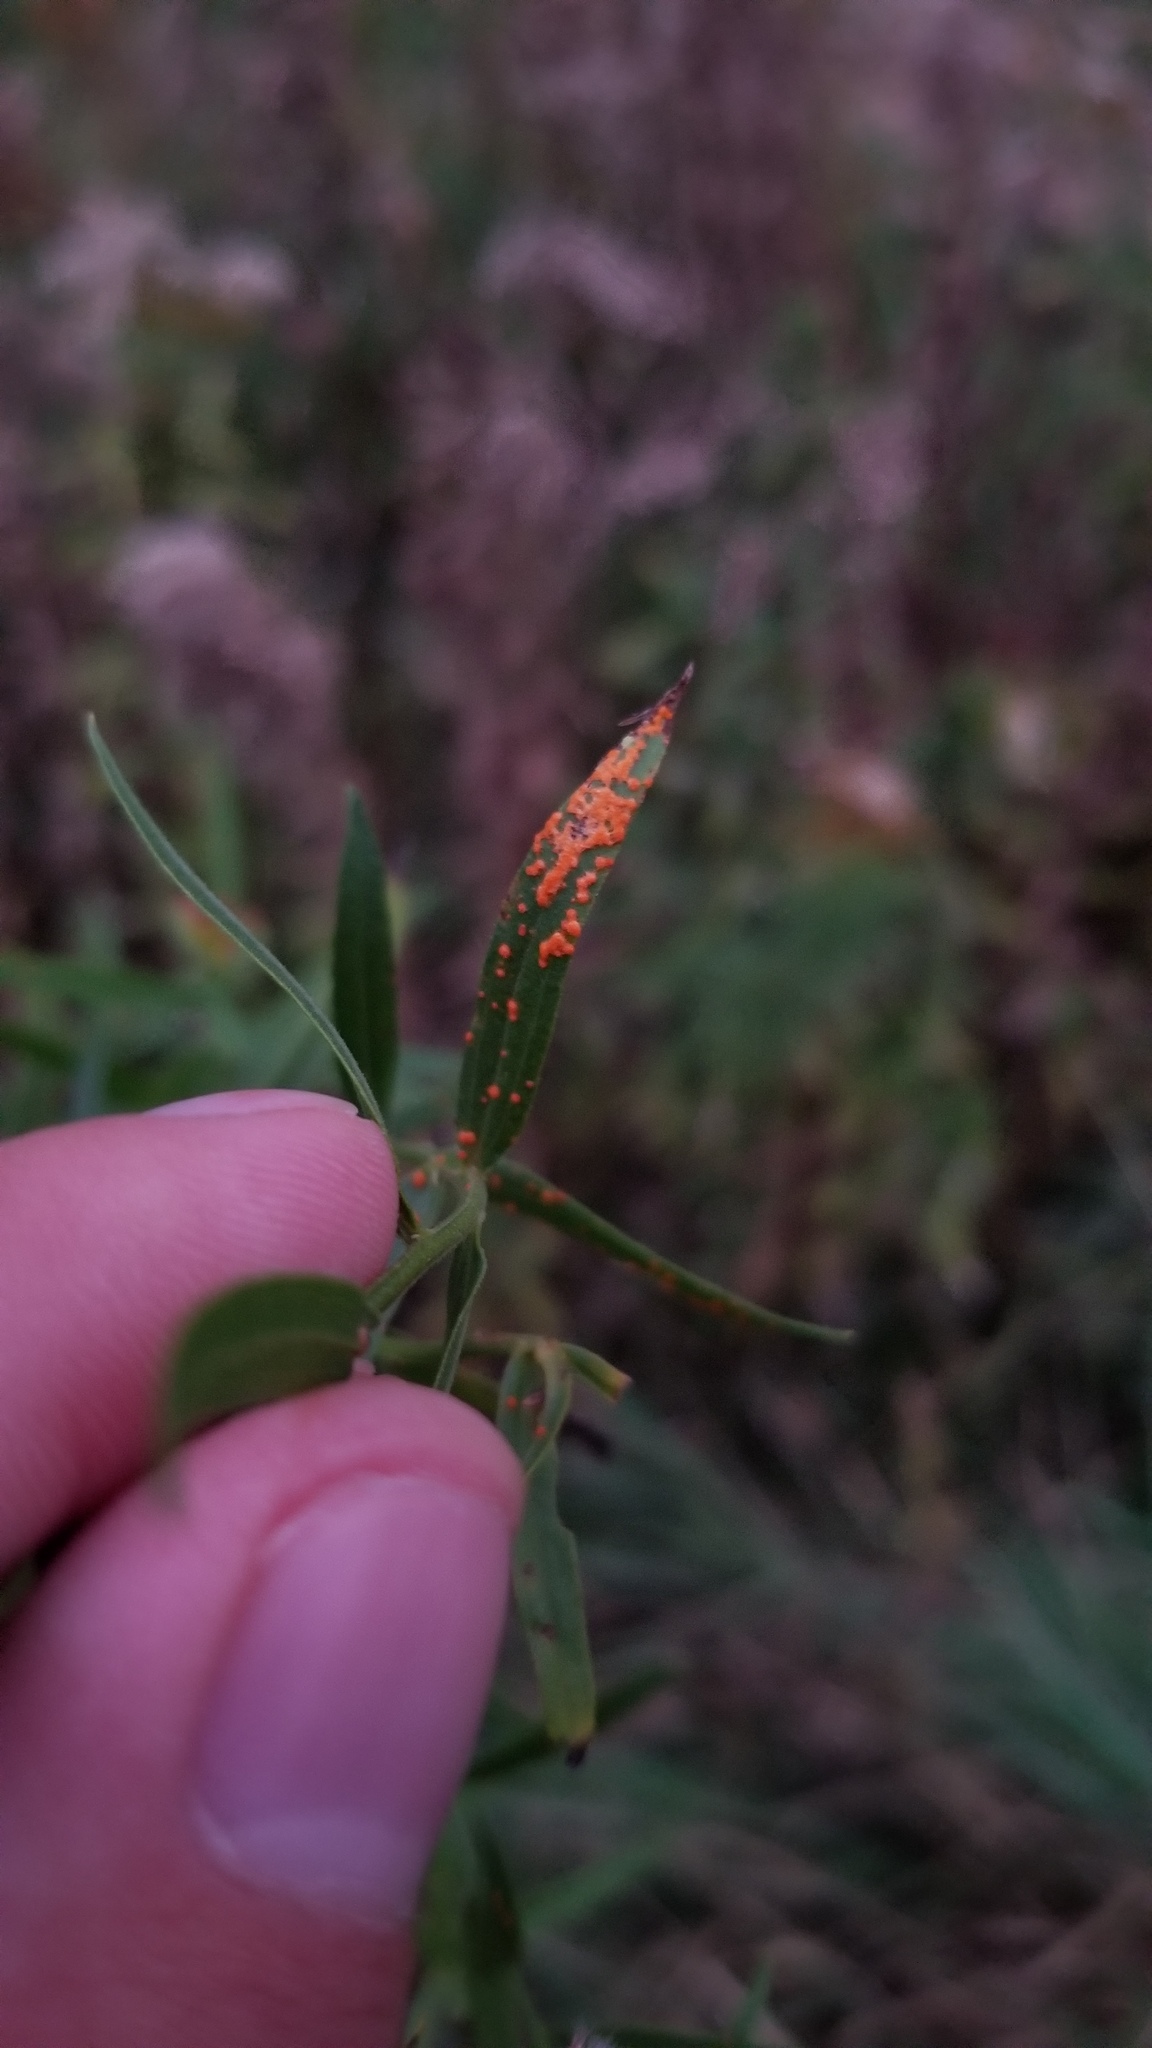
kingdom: Fungi
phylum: Basidiomycota
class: Pucciniomycetes
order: Pucciniales
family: Coleosporiaceae
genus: Coleosporium
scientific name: Coleosporium delicatulum
